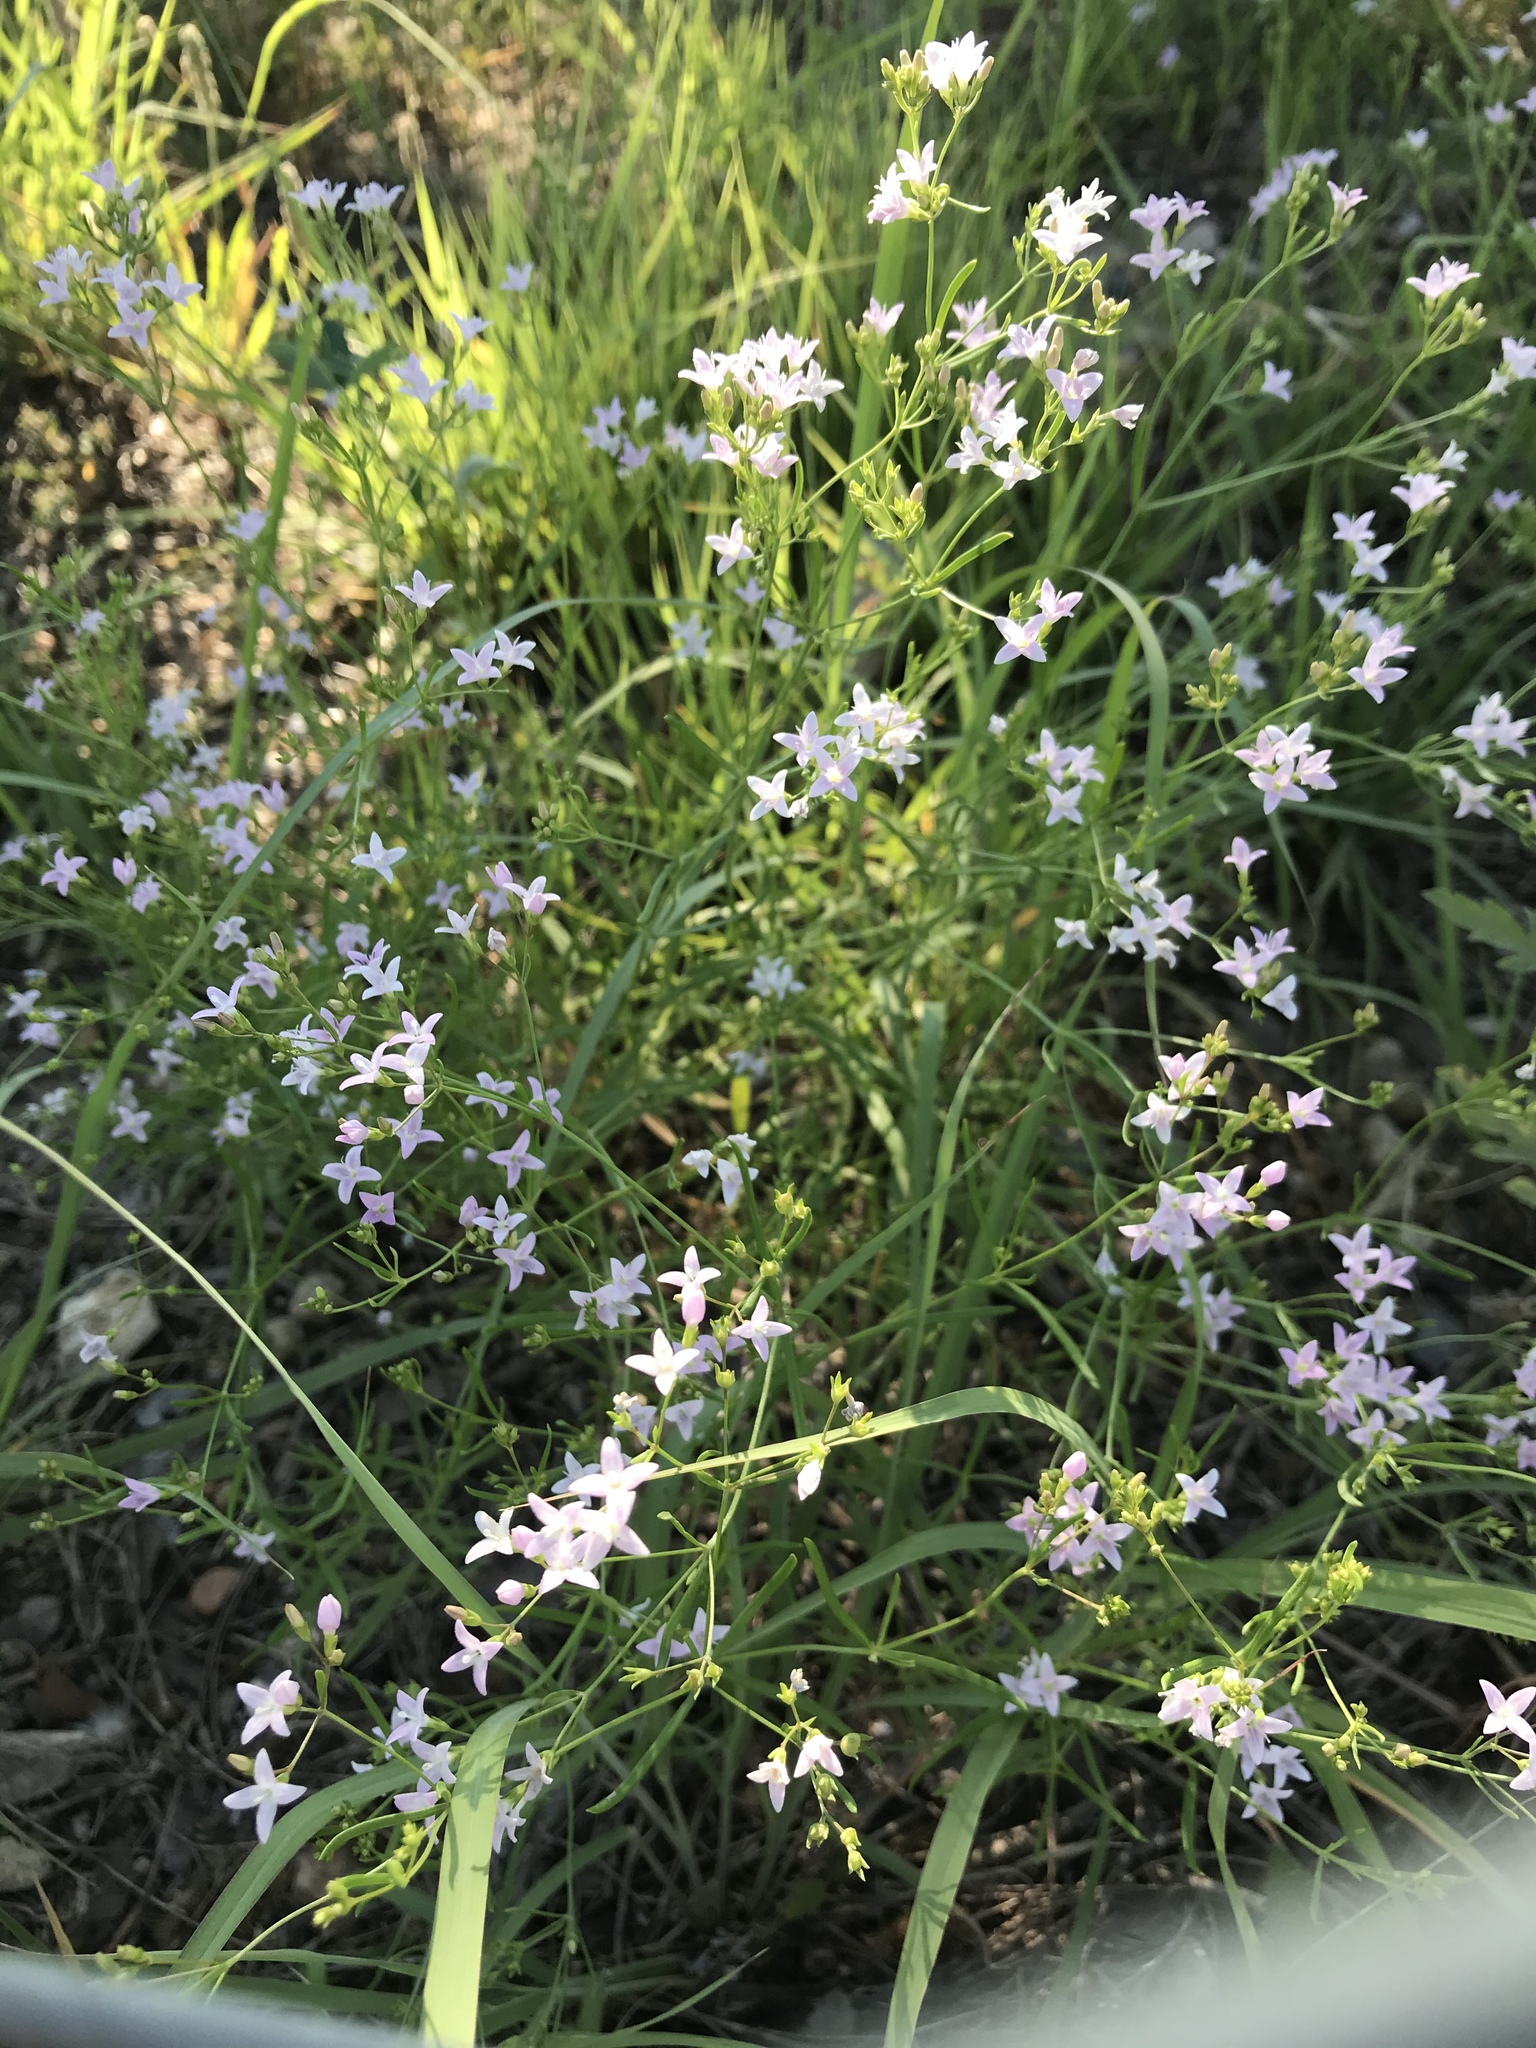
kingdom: Plantae
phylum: Tracheophyta
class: Magnoliopsida
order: Gentianales
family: Rubiaceae
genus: Stenaria
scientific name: Stenaria nigricans
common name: Diamondflowers
